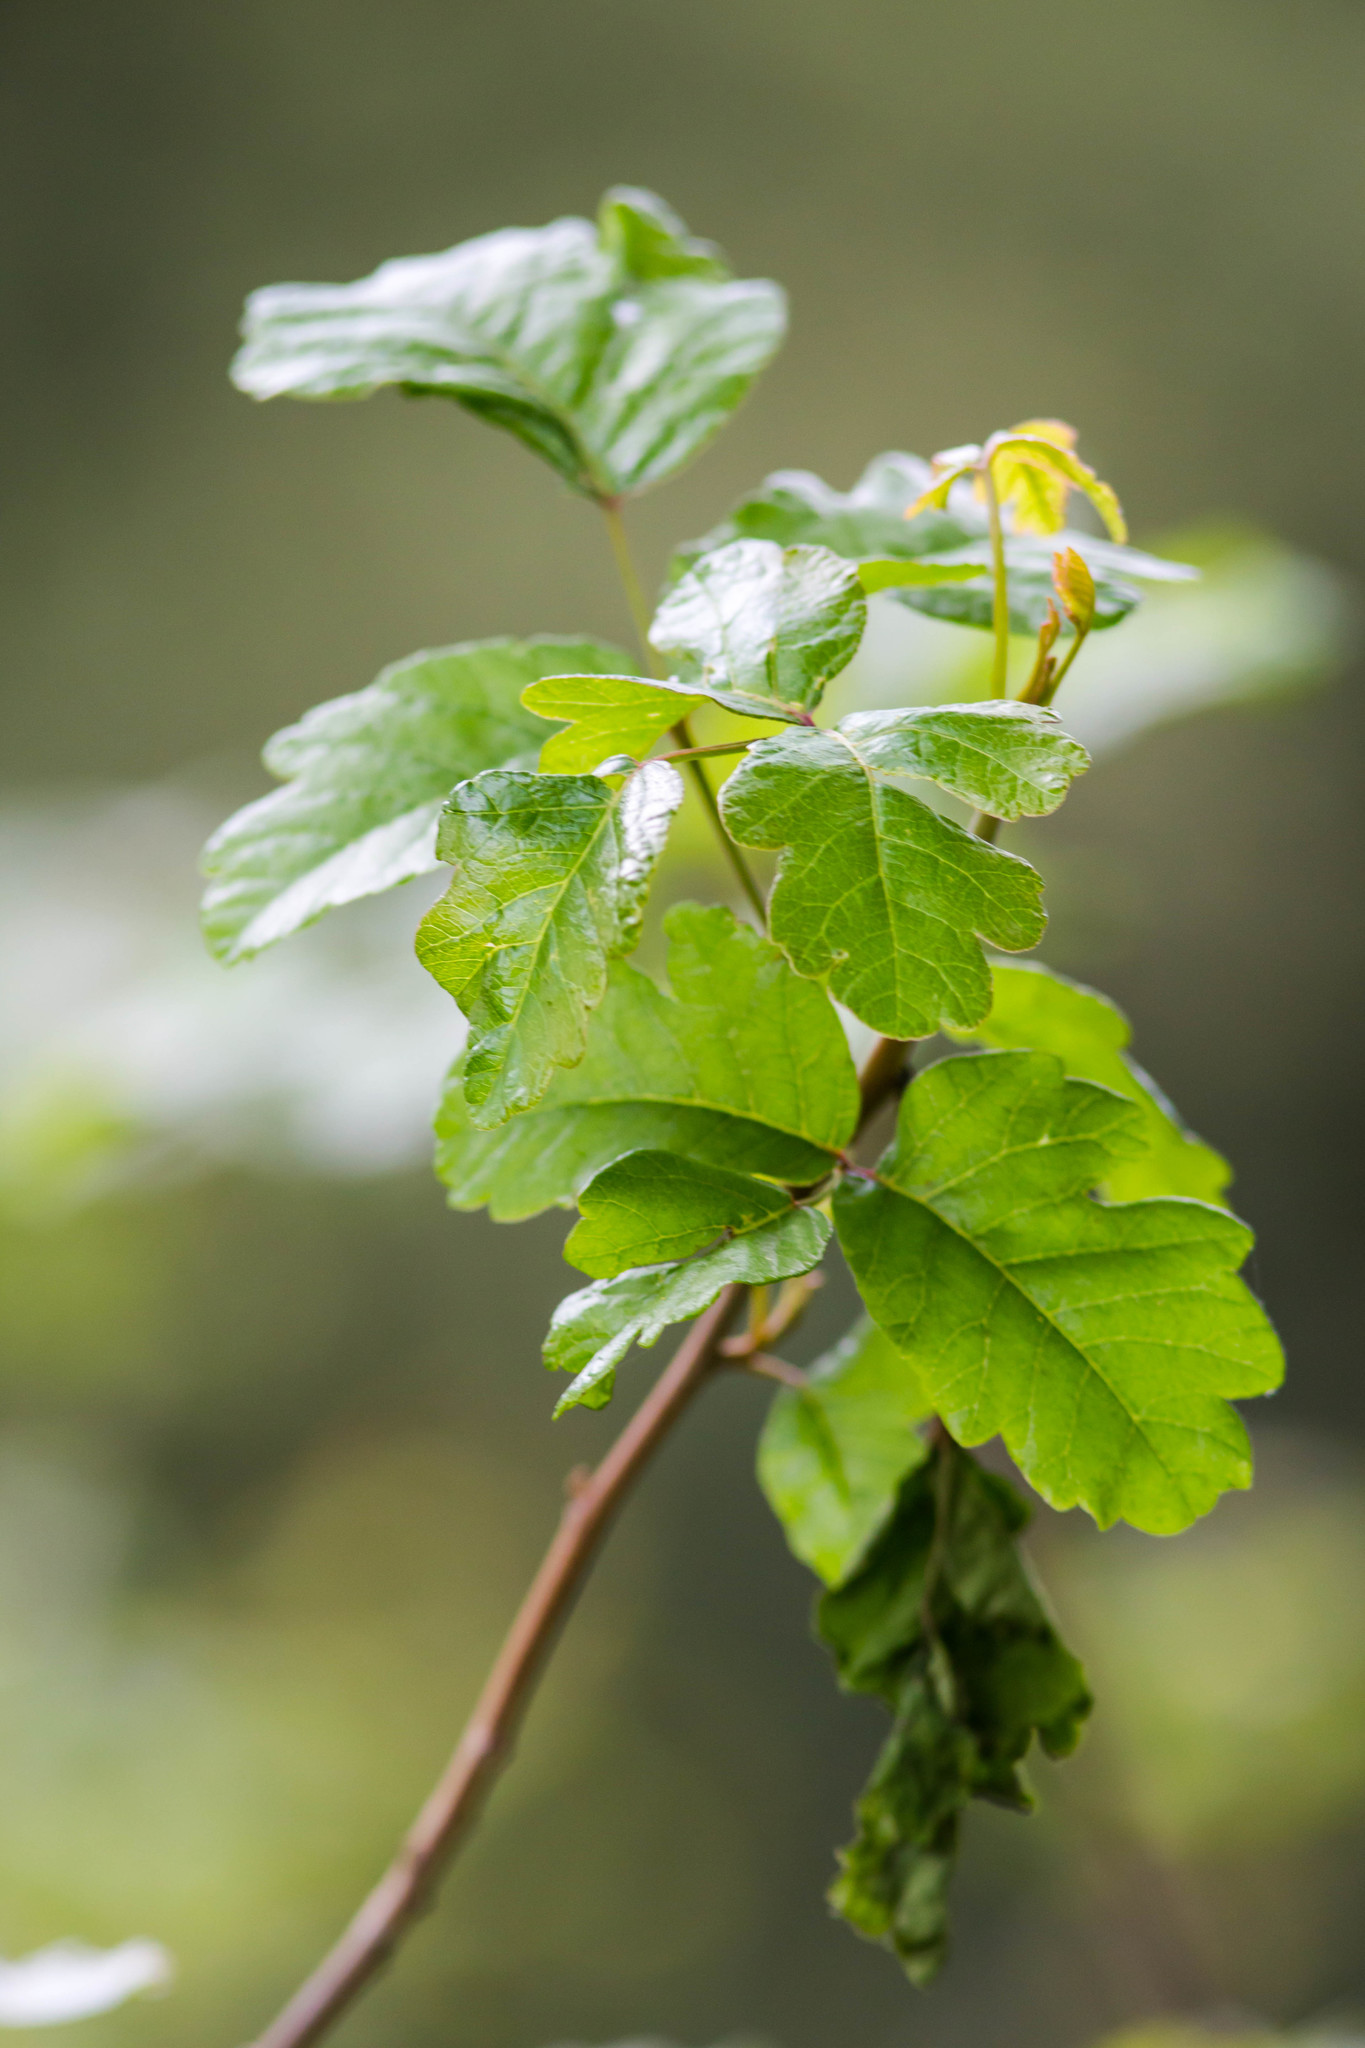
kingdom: Plantae
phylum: Tracheophyta
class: Magnoliopsida
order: Sapindales
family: Anacardiaceae
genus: Toxicodendron
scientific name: Toxicodendron diversilobum
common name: Pacific poison-oak
